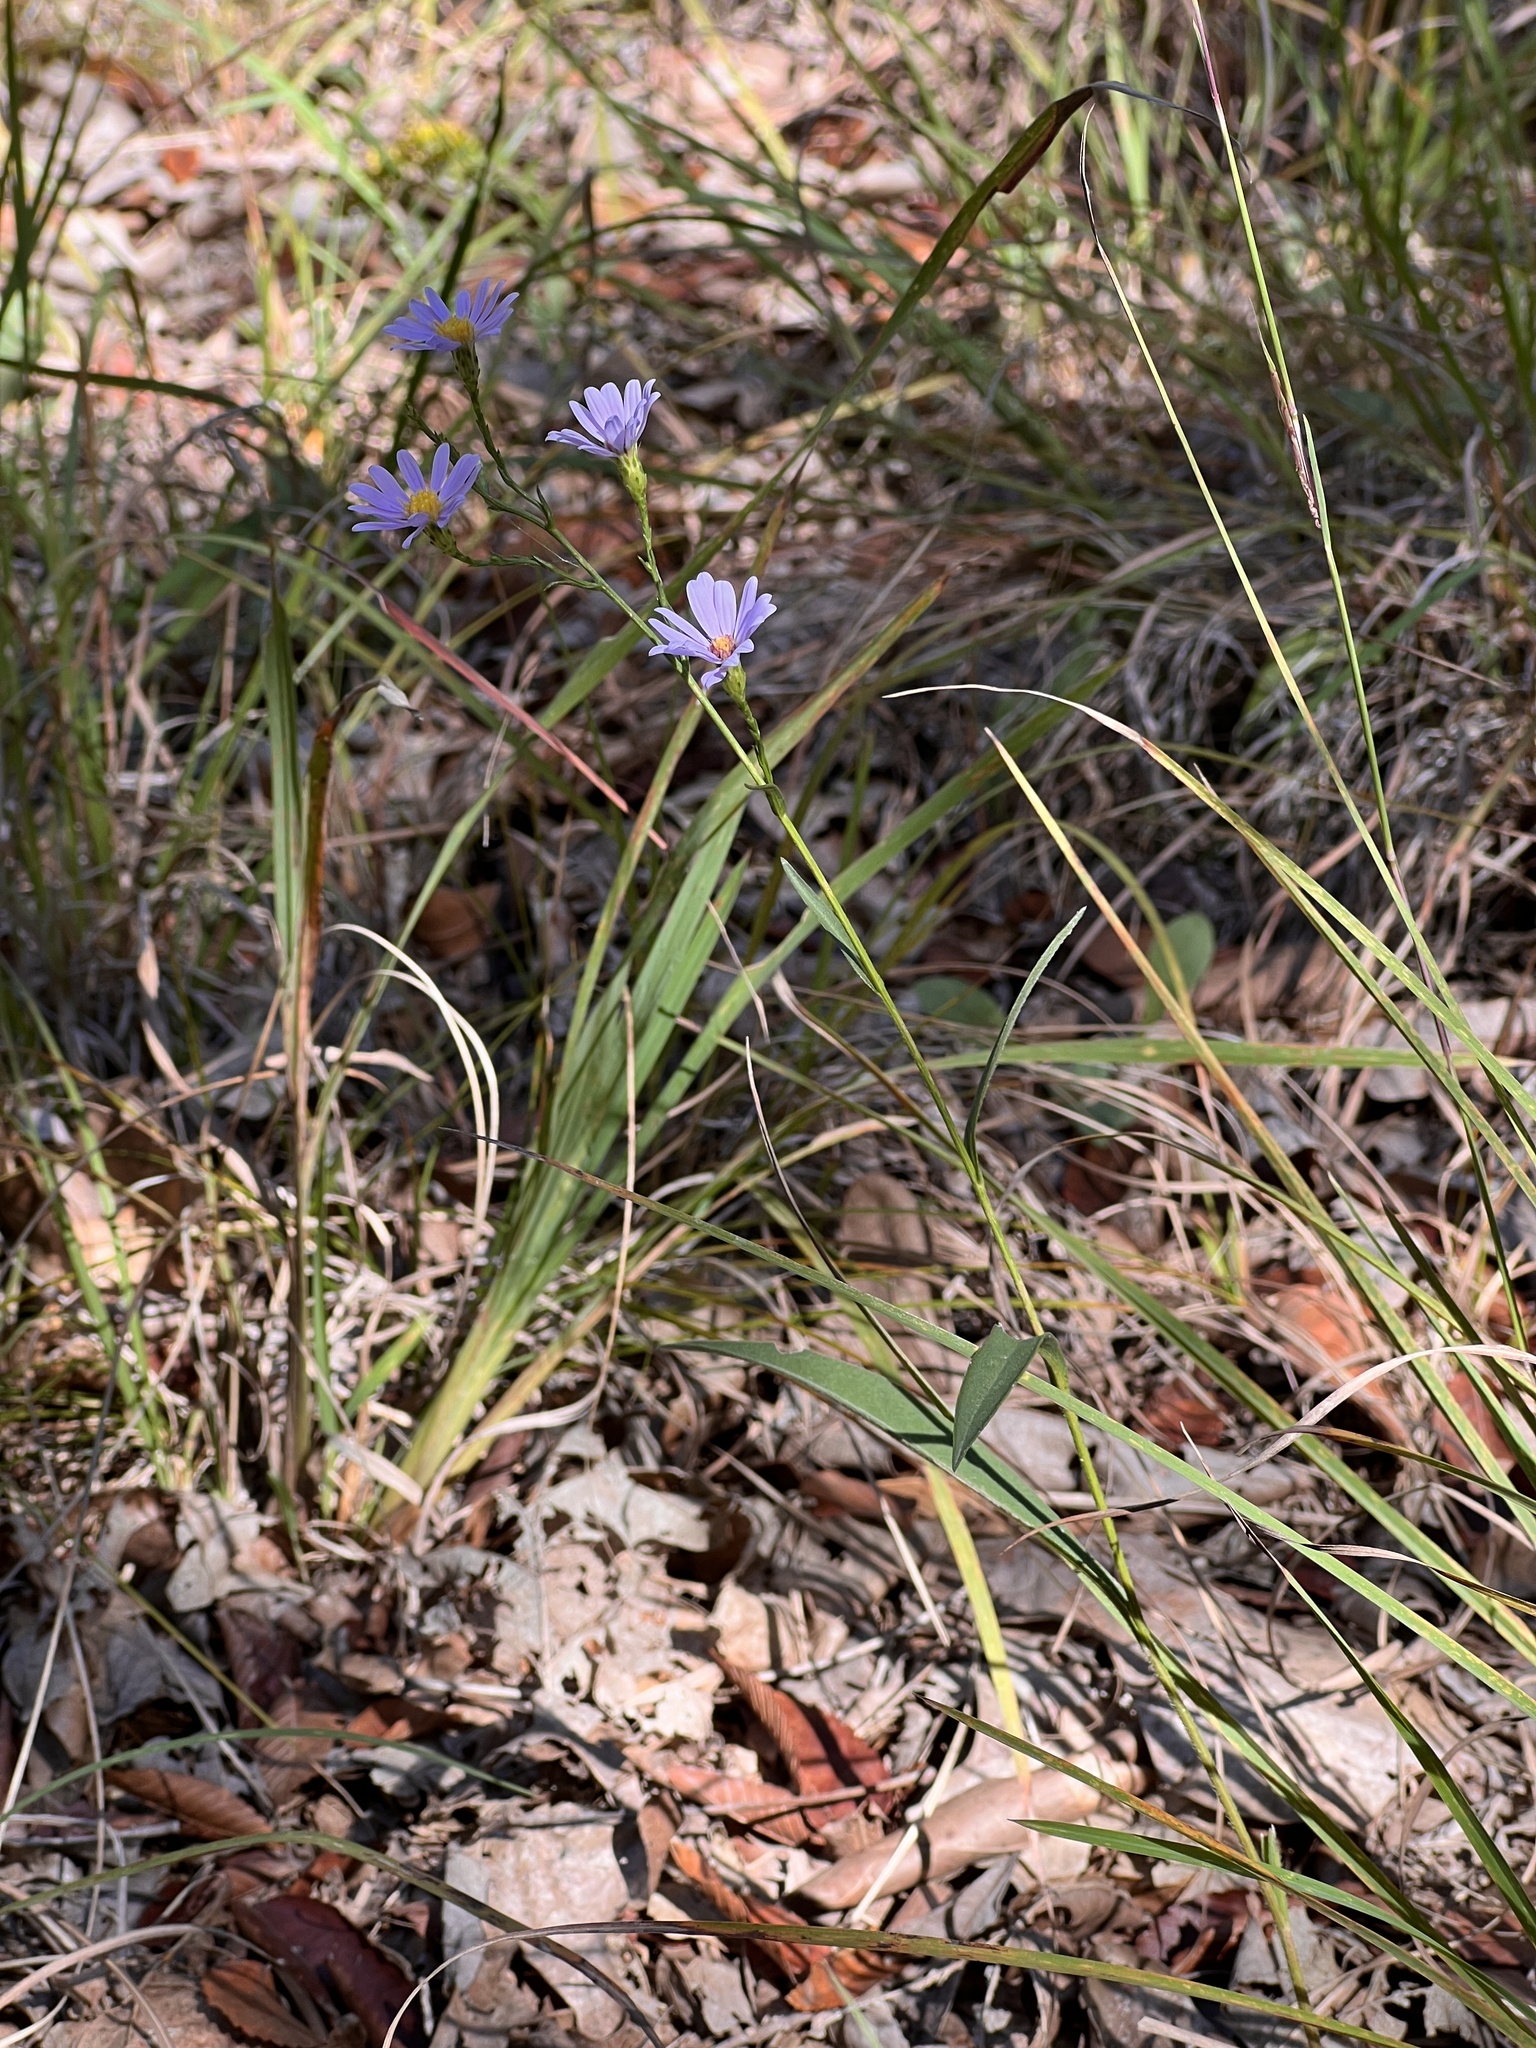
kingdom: Plantae
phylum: Tracheophyta
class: Magnoliopsida
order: Asterales
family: Asteraceae
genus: Symphyotrichum
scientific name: Symphyotrichum oolentangiense
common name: Azure aster
